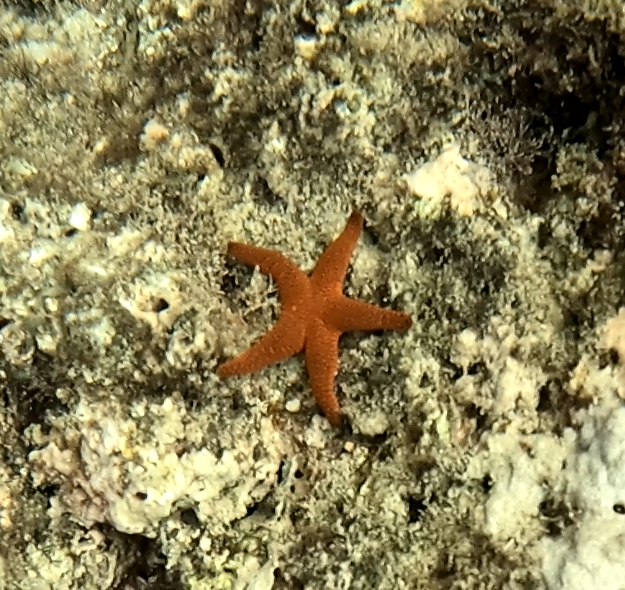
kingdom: Animalia
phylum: Echinodermata
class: Asteroidea
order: Valvatida
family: Goniasteridae
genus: Fromia
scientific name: Fromia indica
